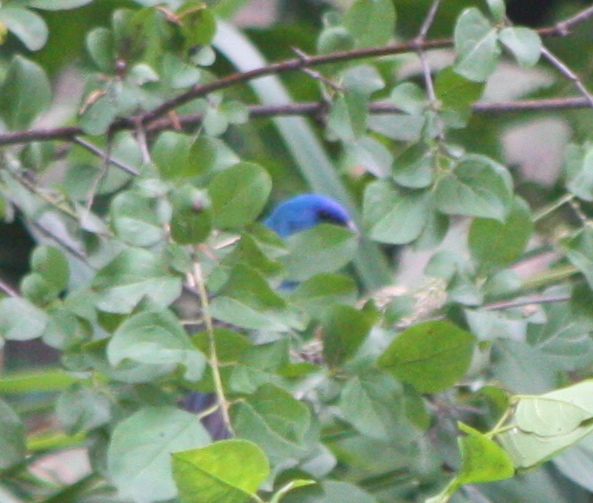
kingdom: Animalia
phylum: Chordata
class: Aves
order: Passeriformes
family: Cardinalidae
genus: Passerina
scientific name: Passerina cyanea
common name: Indigo bunting
